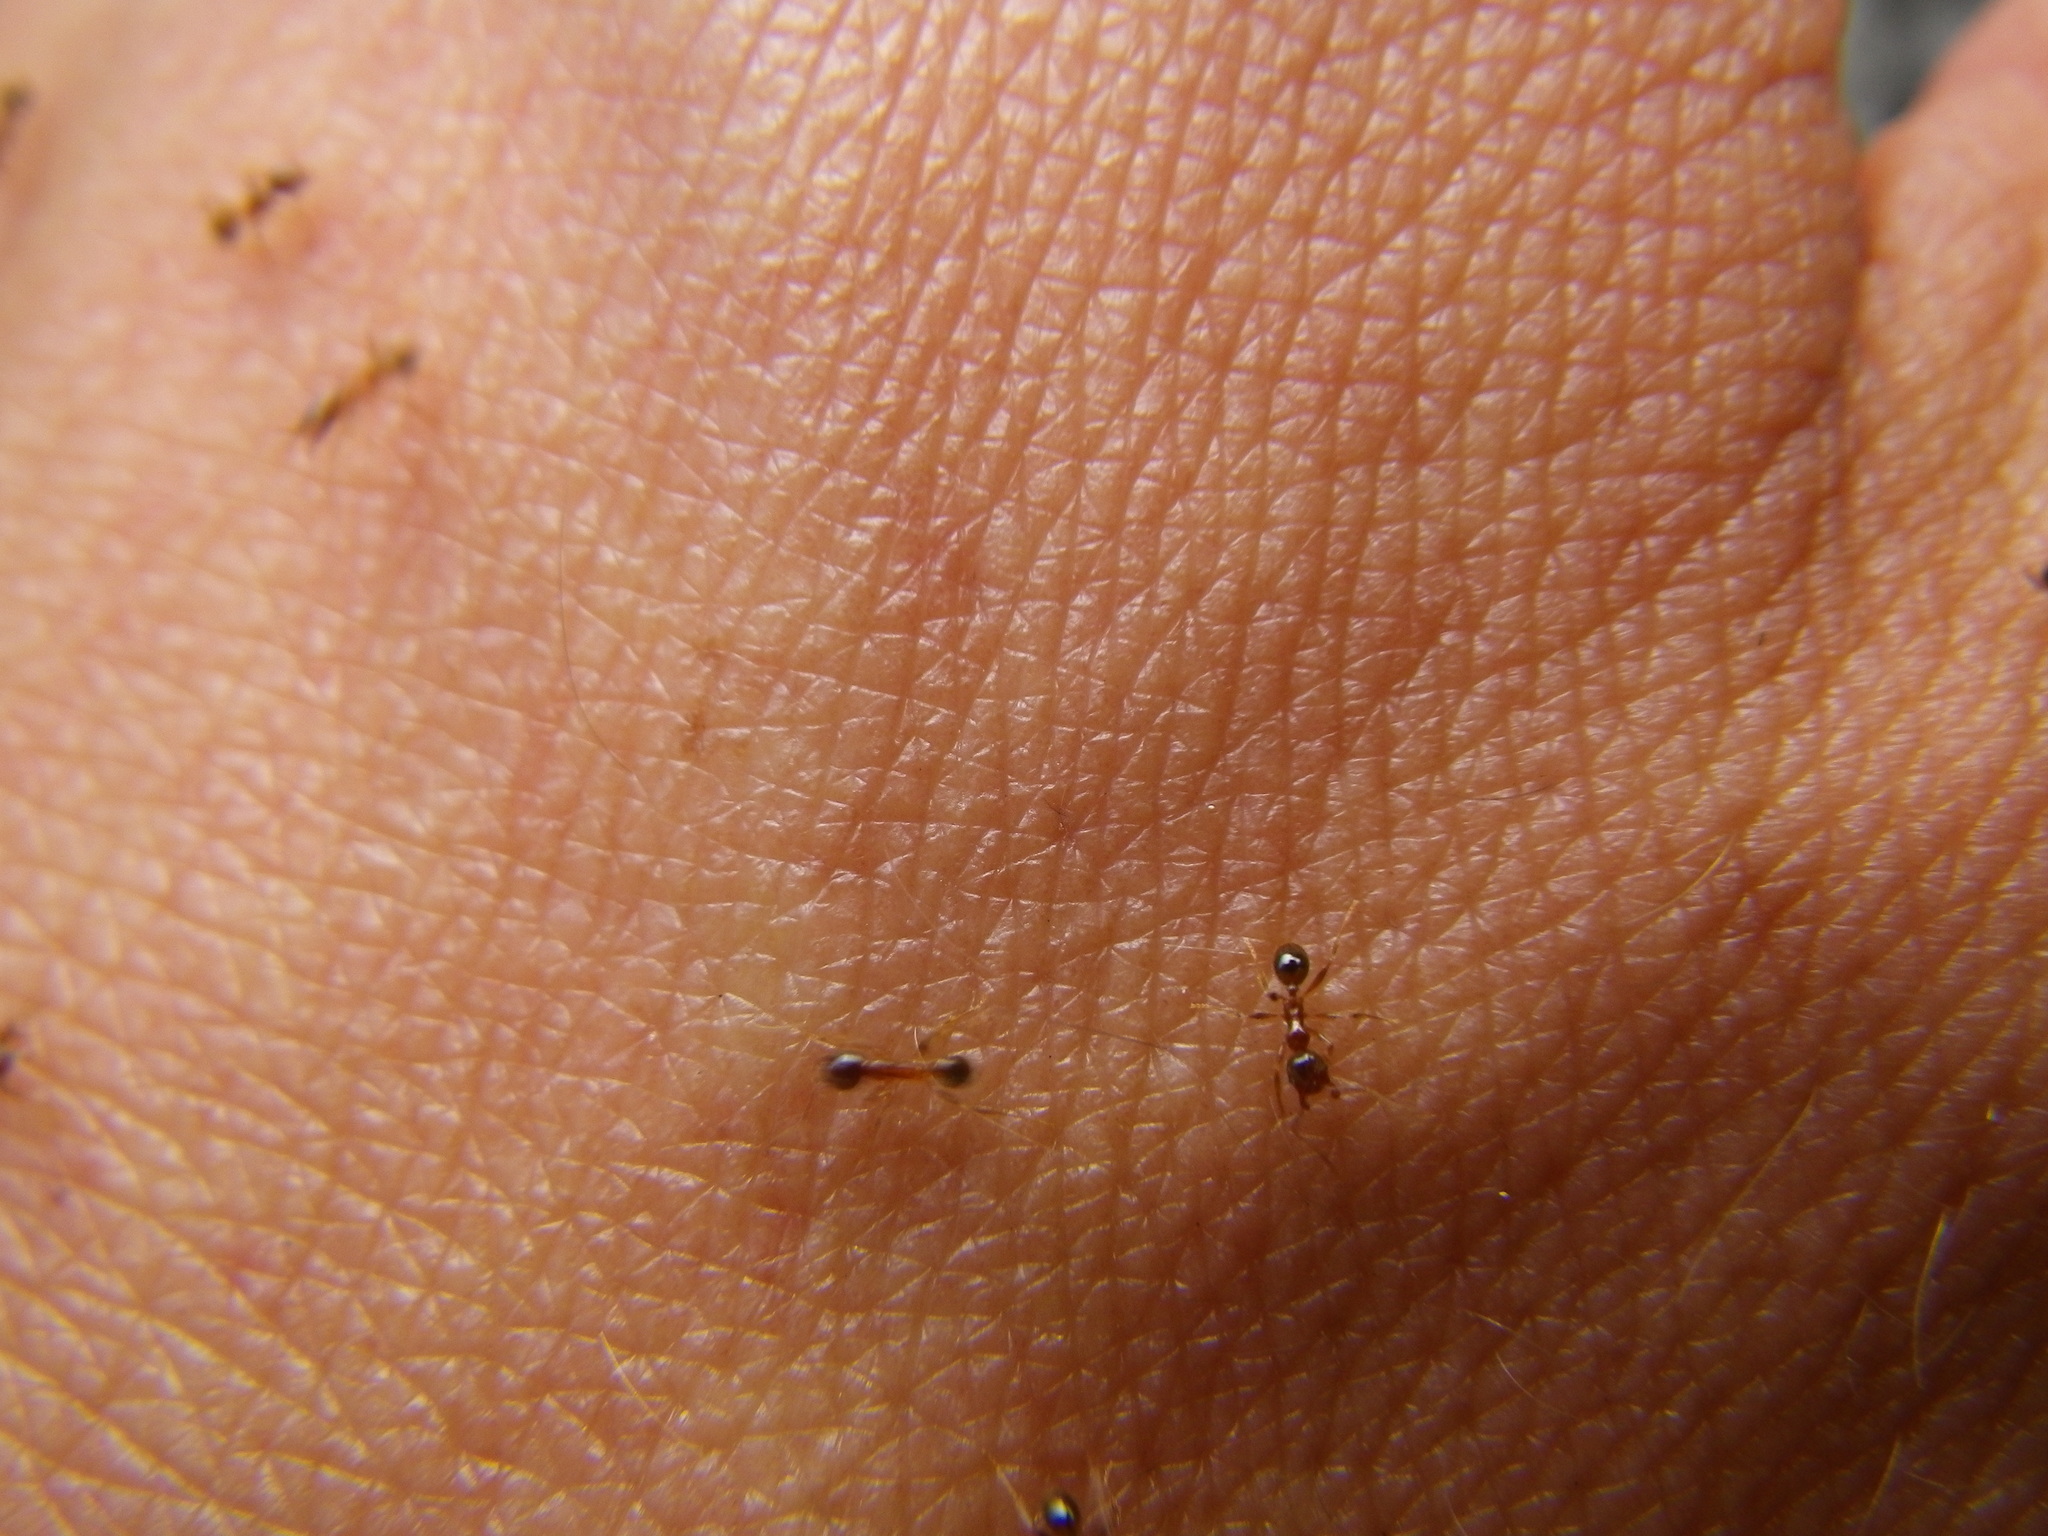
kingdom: Animalia
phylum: Arthropoda
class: Insecta
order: Hymenoptera
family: Formicidae
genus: Pheidole
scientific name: Pheidole pallidula
